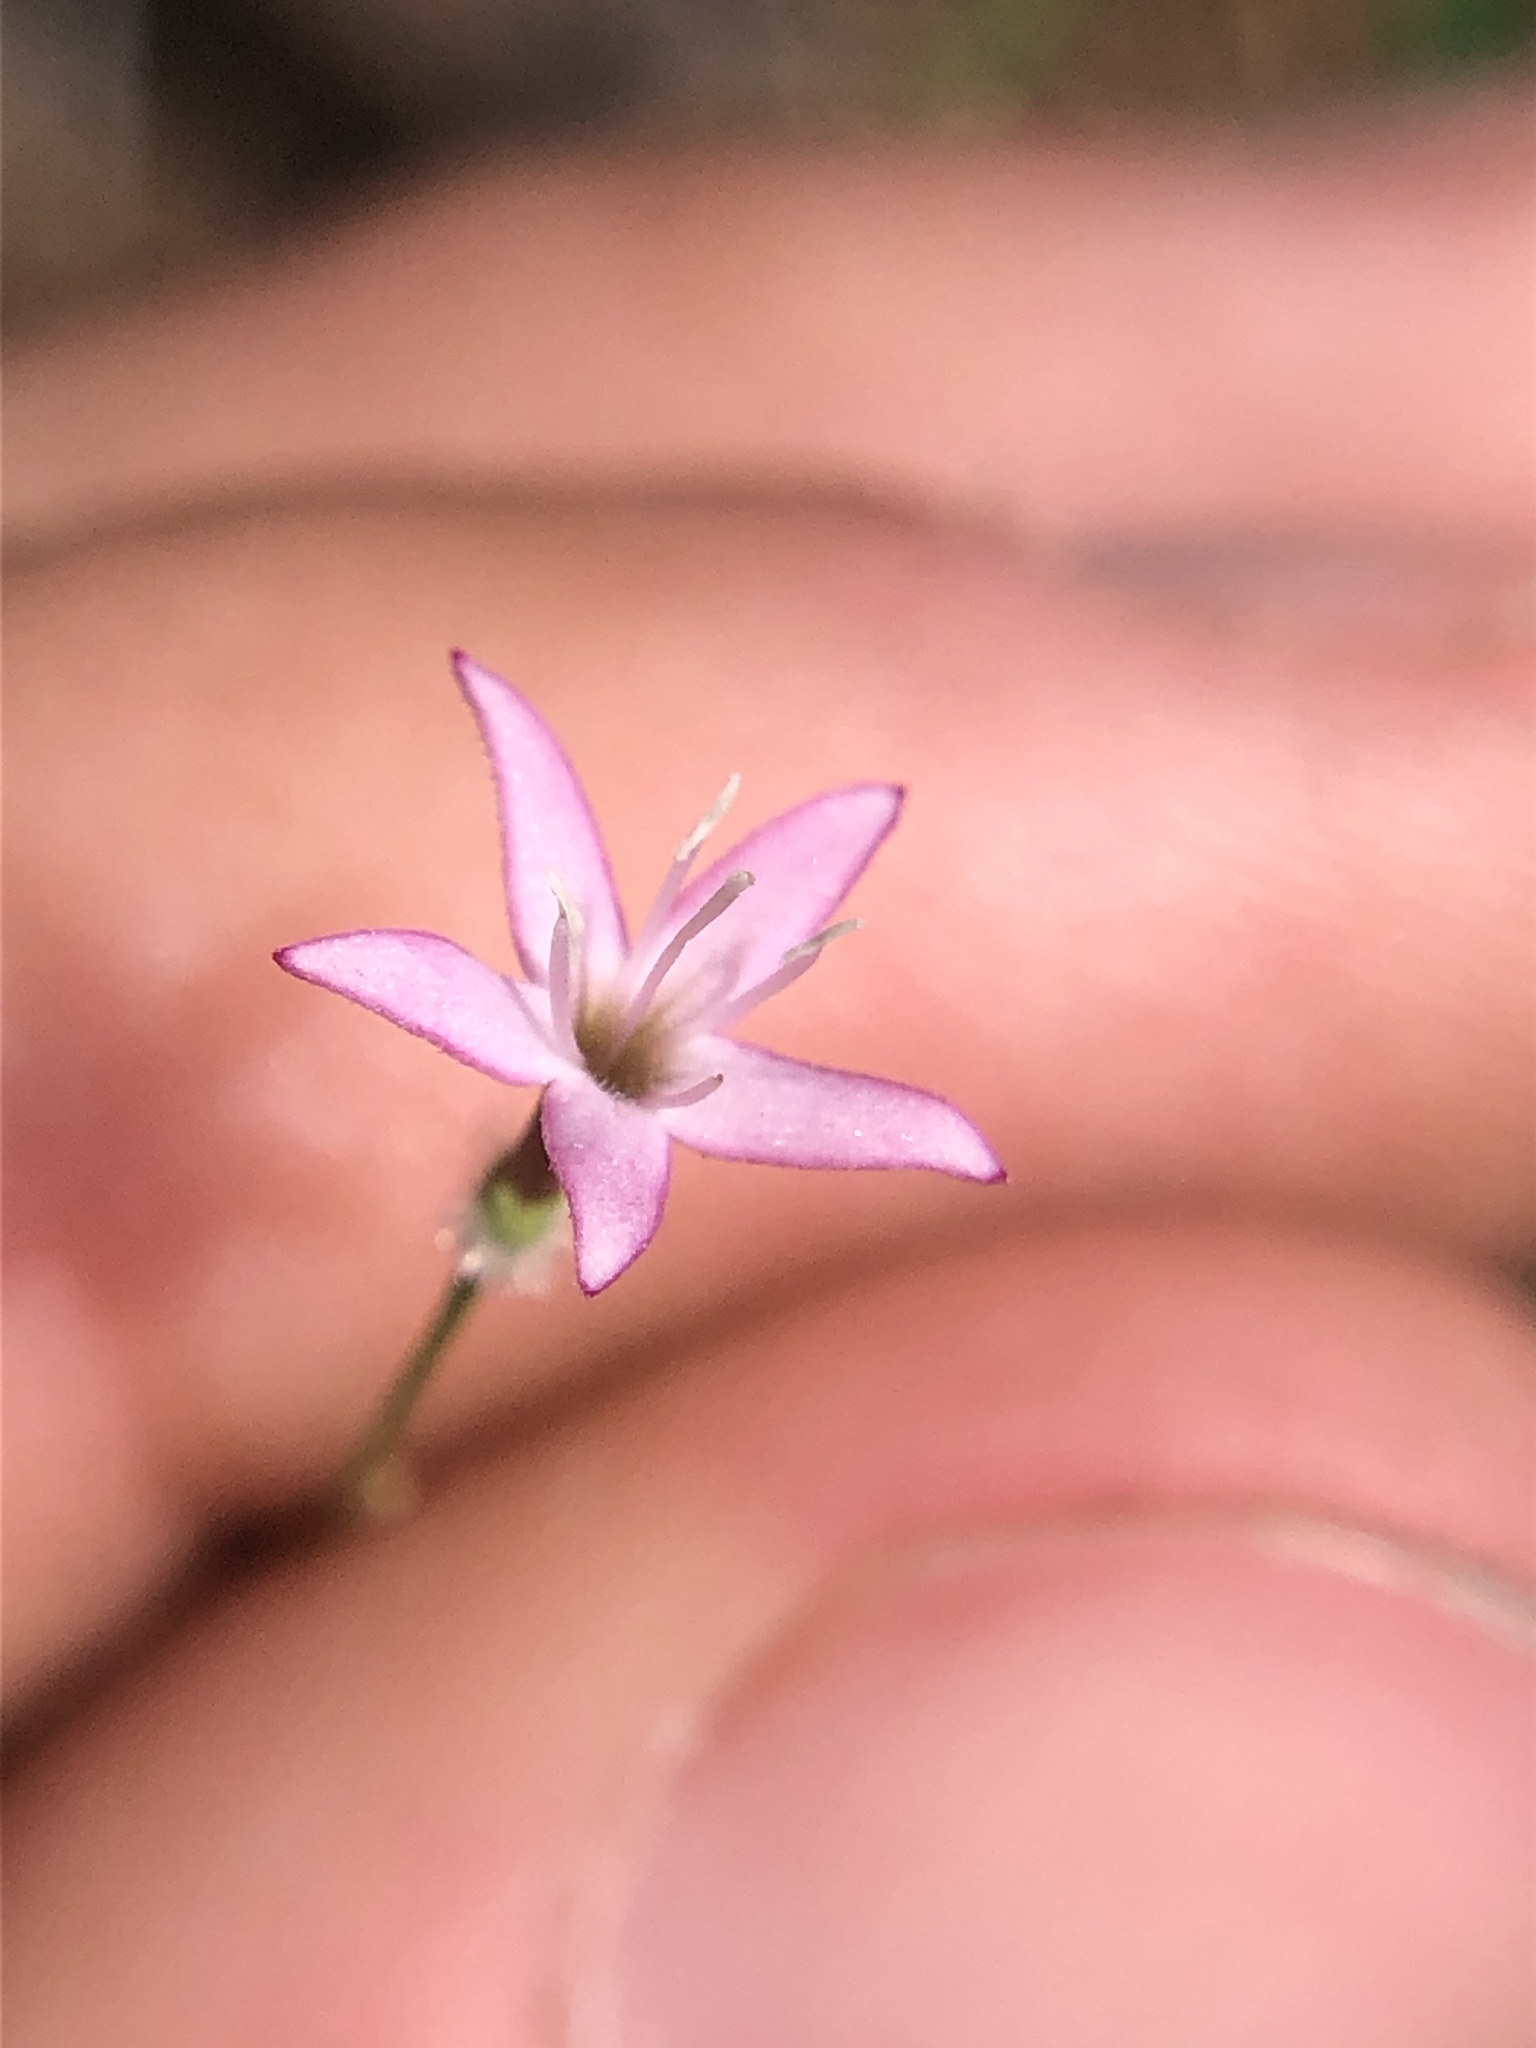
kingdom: Plantae
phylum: Tracheophyta
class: Magnoliopsida
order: Gentianales
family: Rubiaceae
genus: Kelloggia
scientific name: Kelloggia galioides
